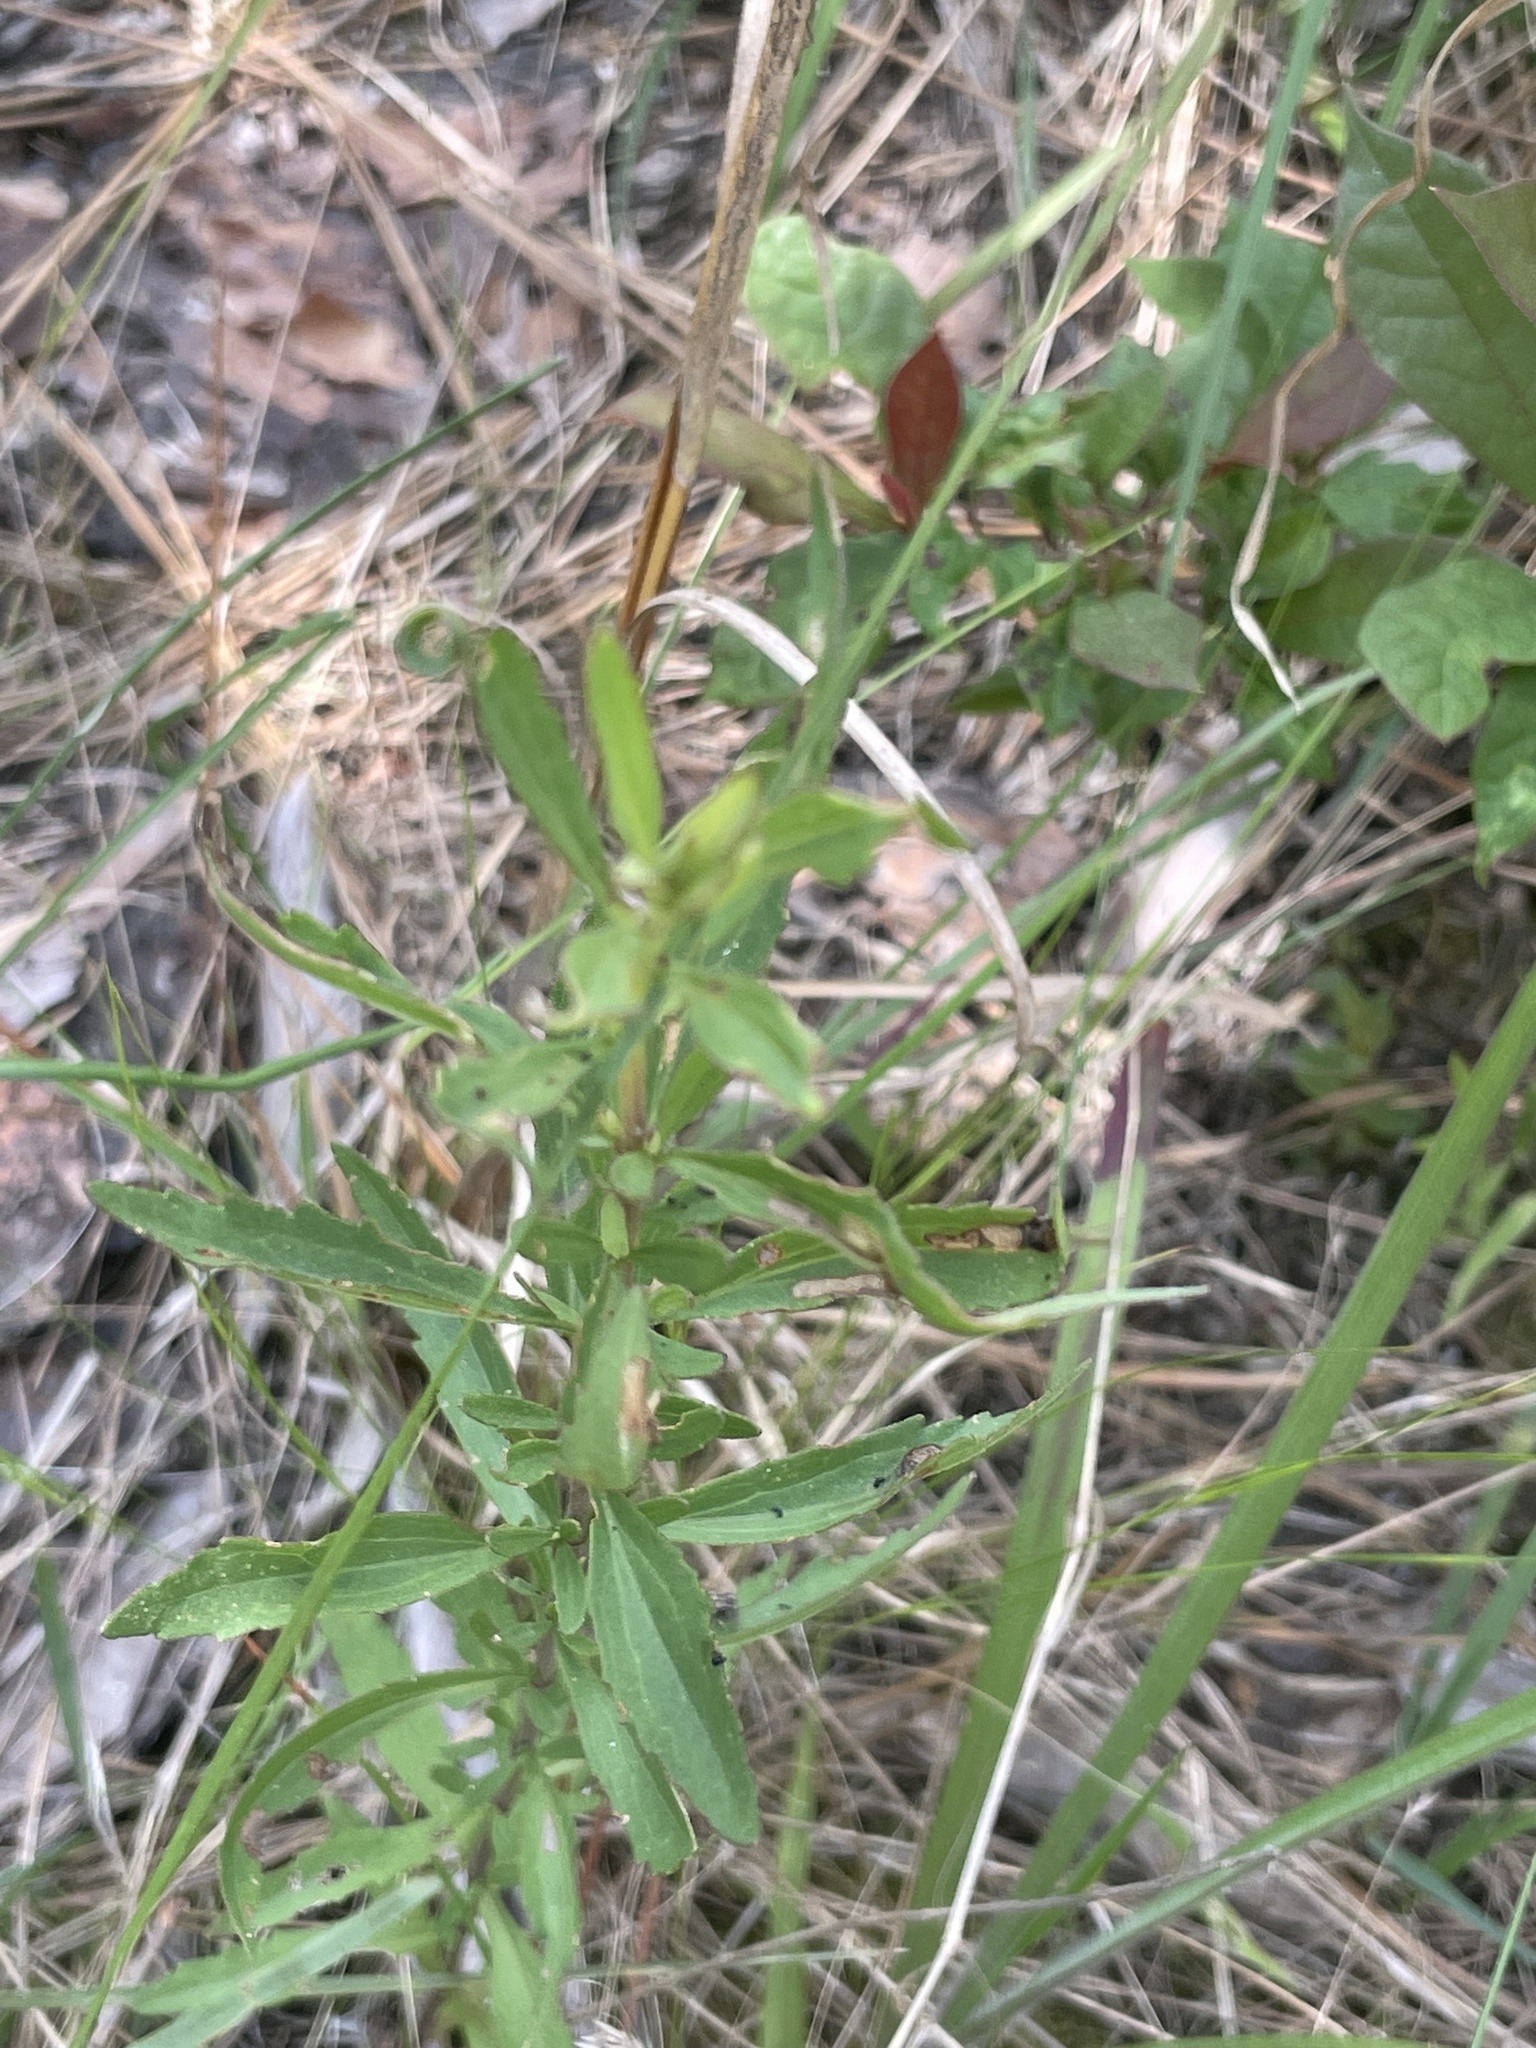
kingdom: Plantae
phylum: Tracheophyta
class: Magnoliopsida
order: Asterales
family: Asteraceae
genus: Eupatorium
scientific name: Eupatorium mohrii
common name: Mohr's thoroughwort
